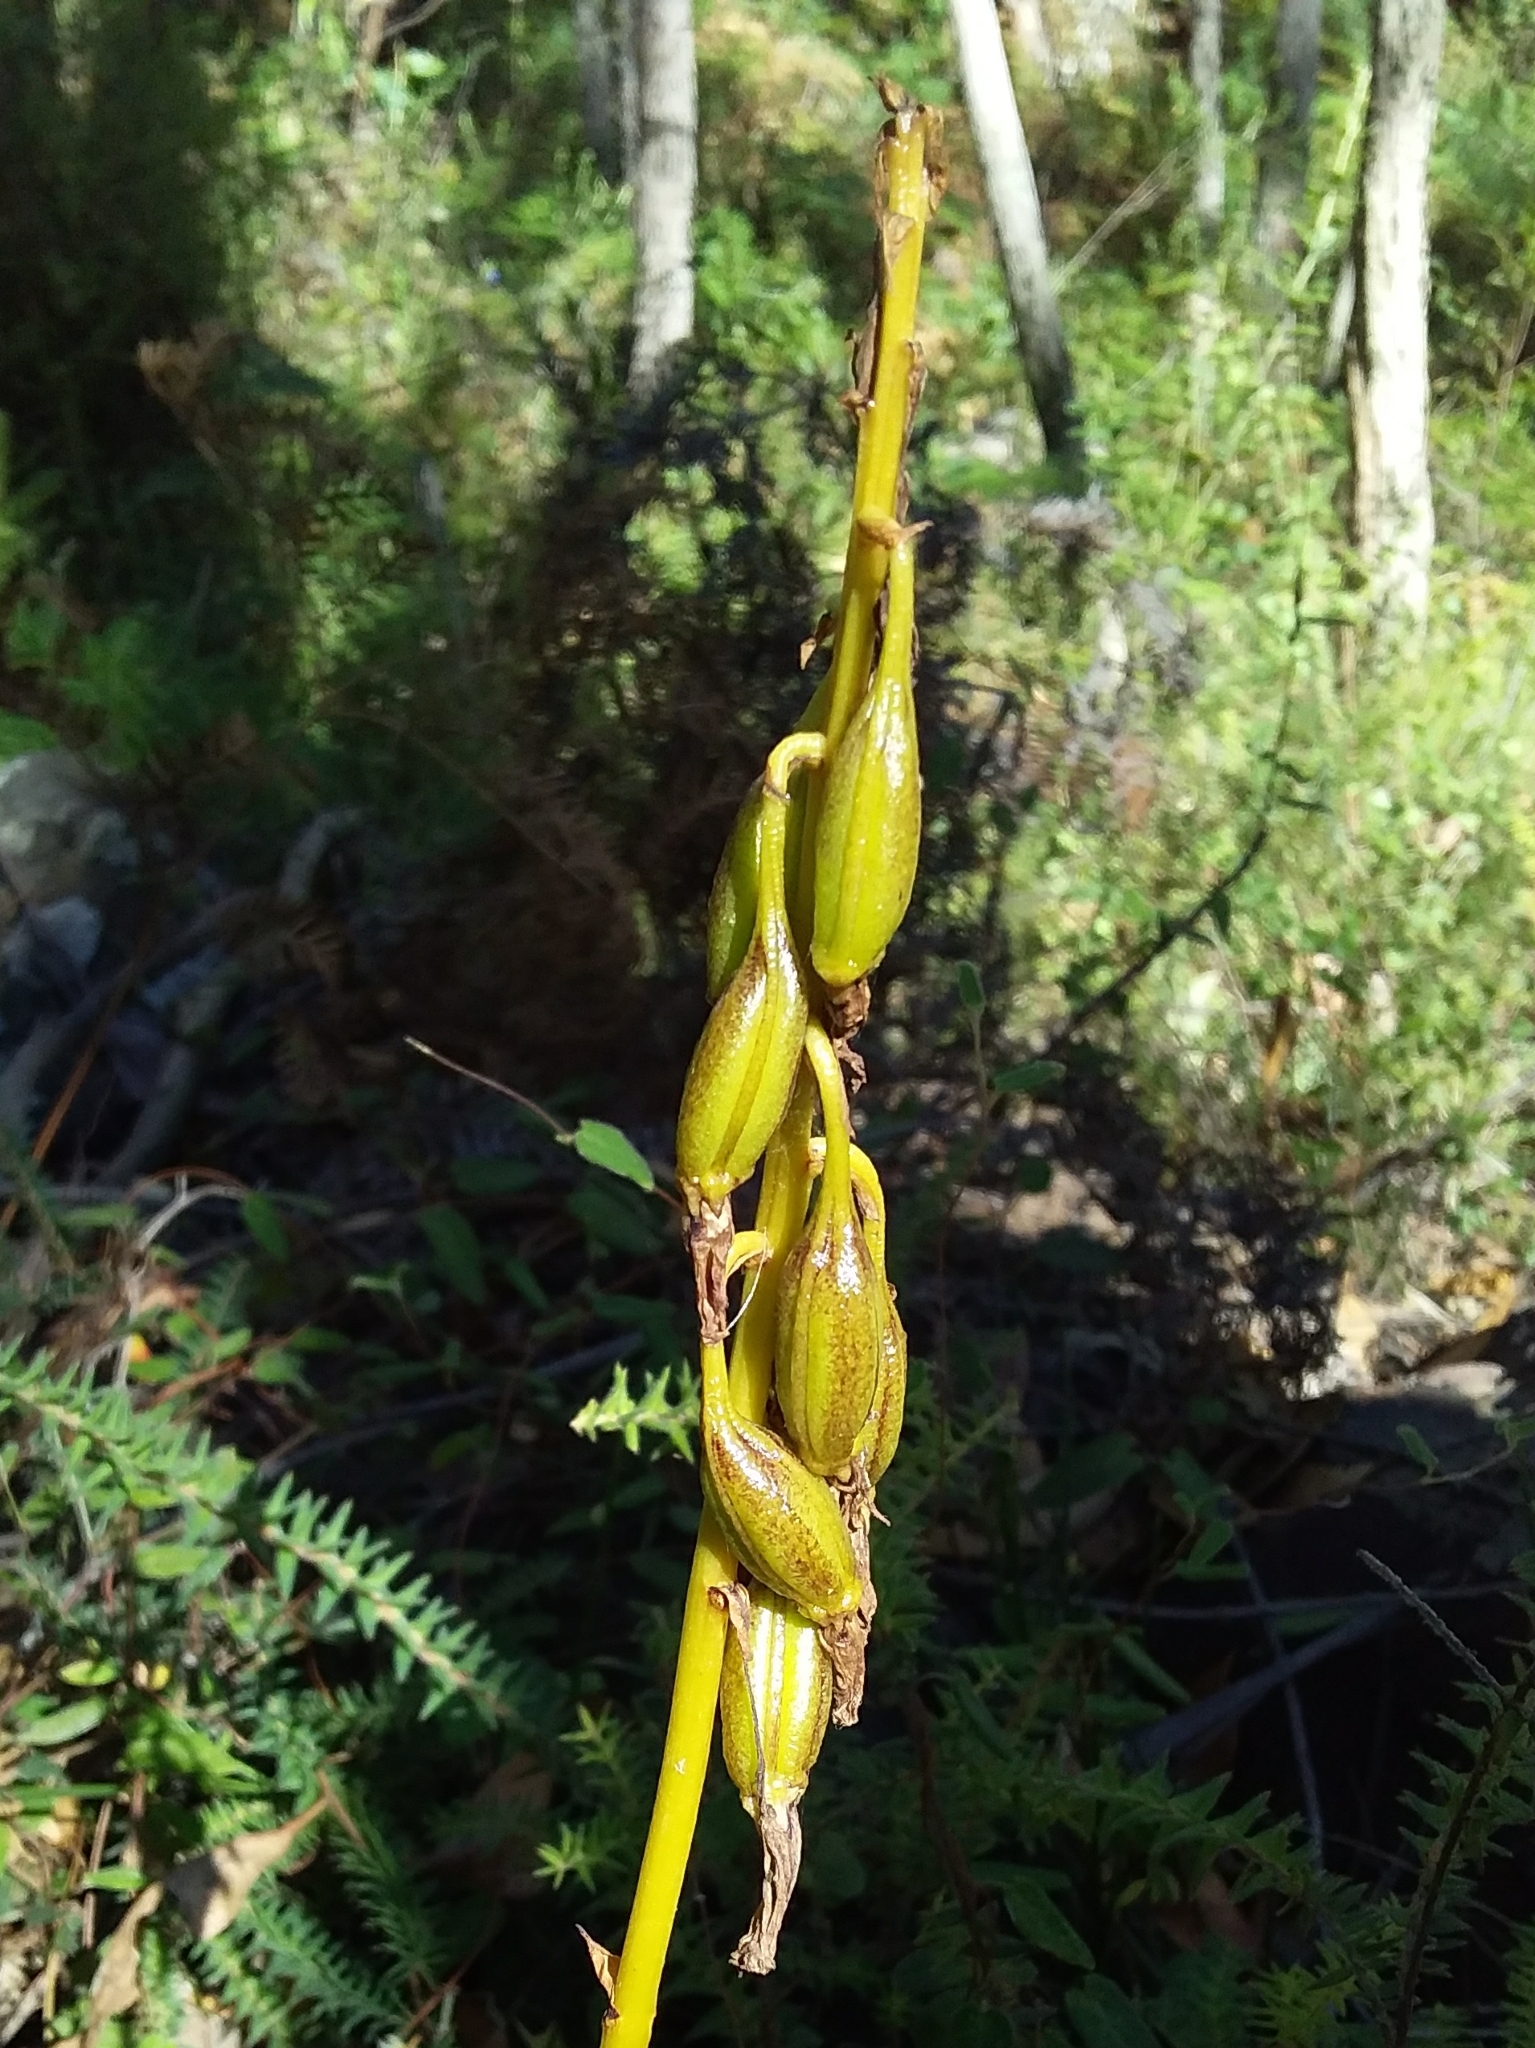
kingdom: Plantae
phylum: Tracheophyta
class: Liliopsida
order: Asparagales
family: Orchidaceae
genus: Dipodium
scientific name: Dipodium
